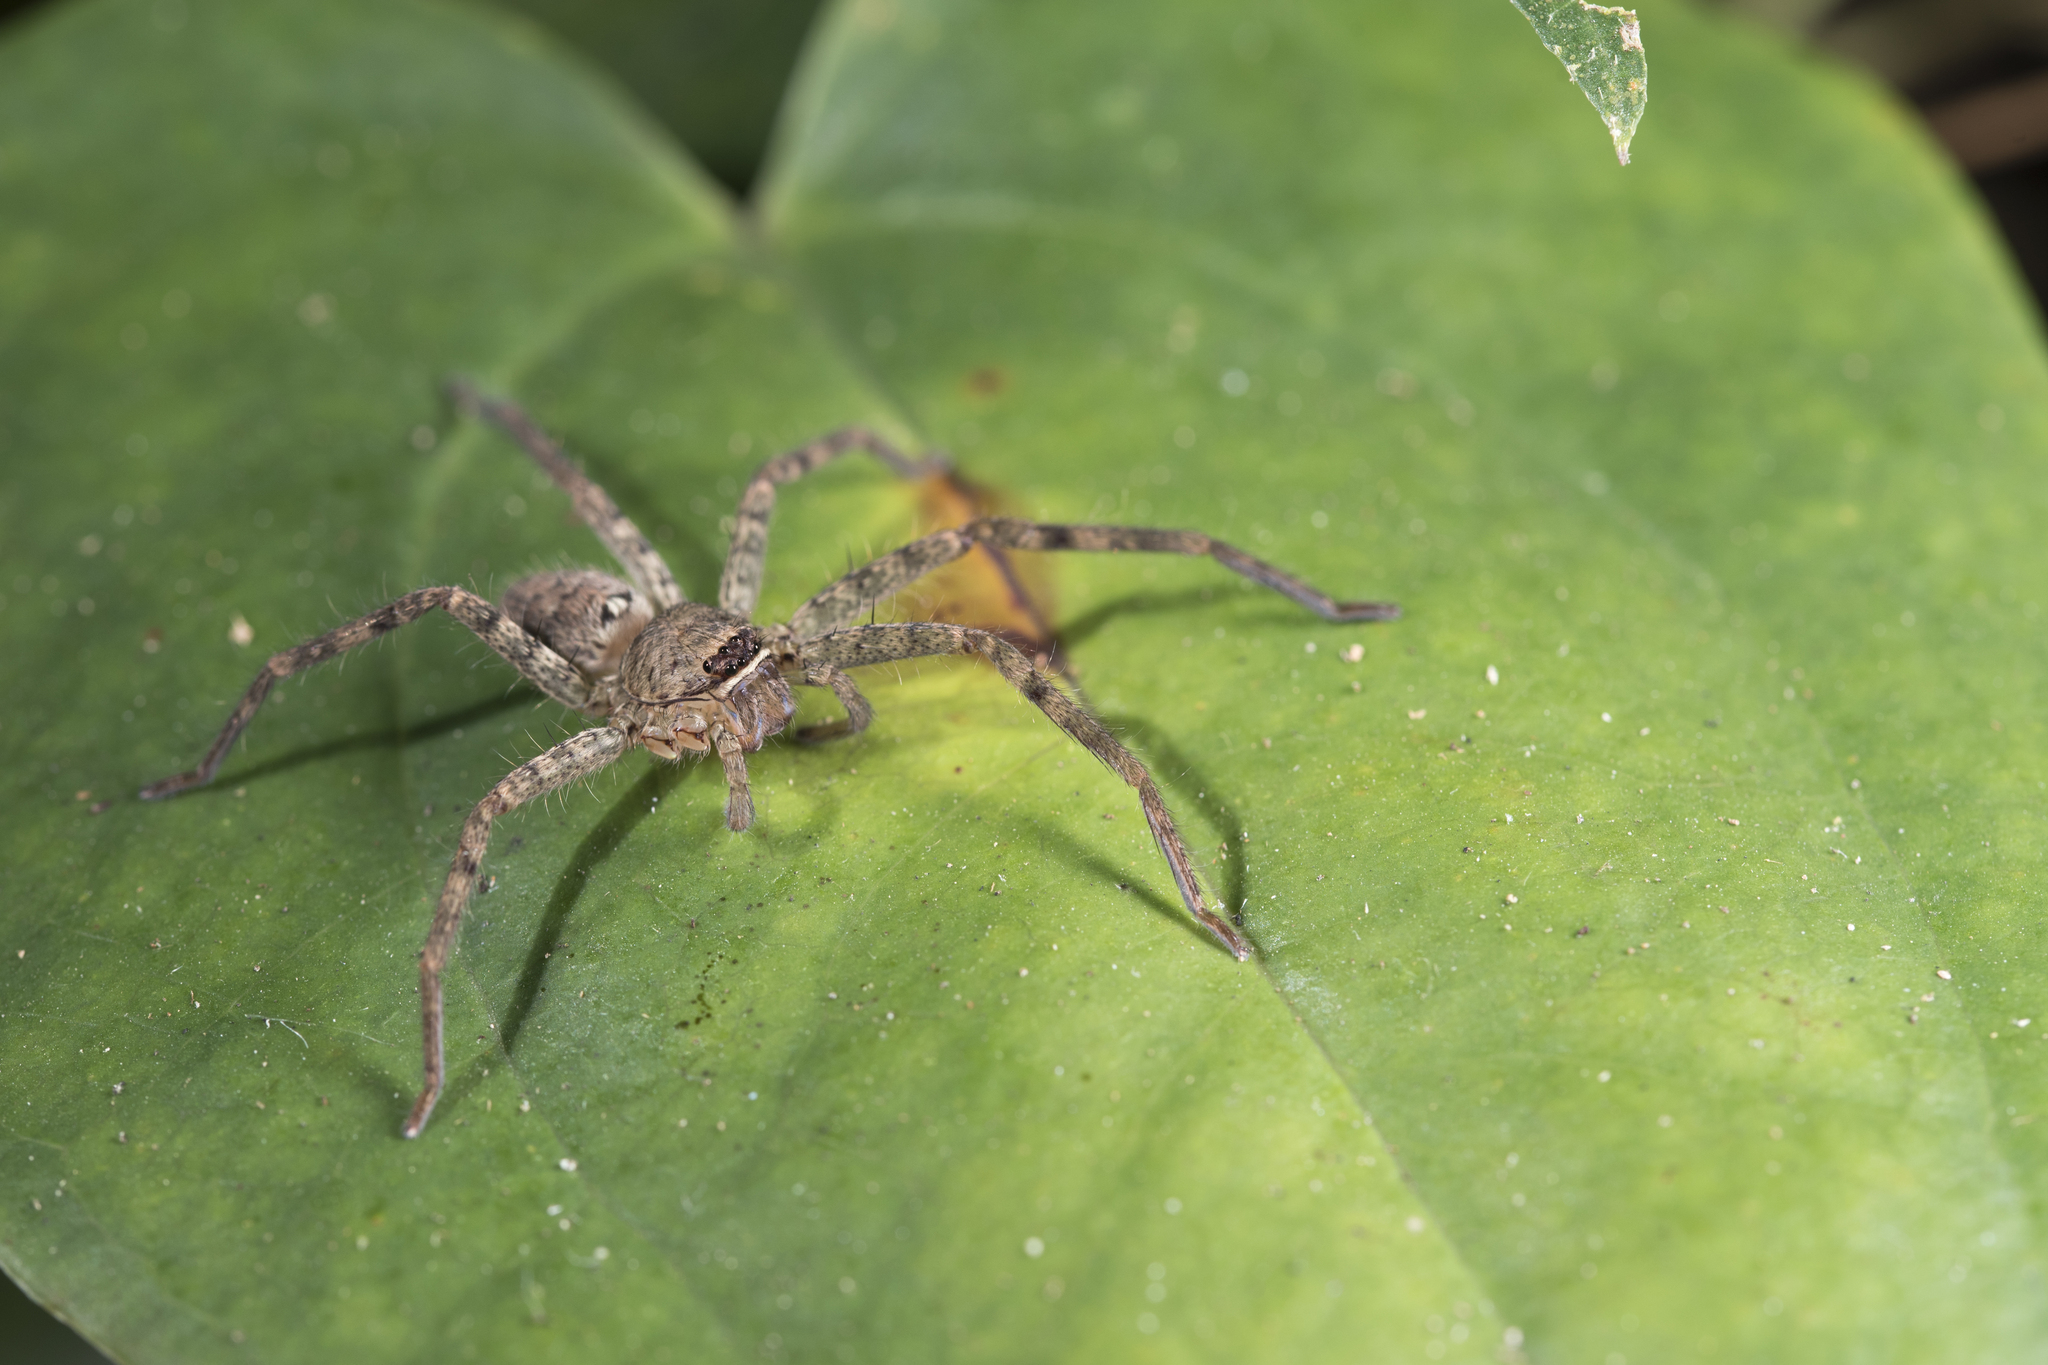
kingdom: Animalia
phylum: Arthropoda
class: Arachnida
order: Araneae
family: Sparassidae
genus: Heteropoda
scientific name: Heteropoda venatoria
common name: Huntsman spider
